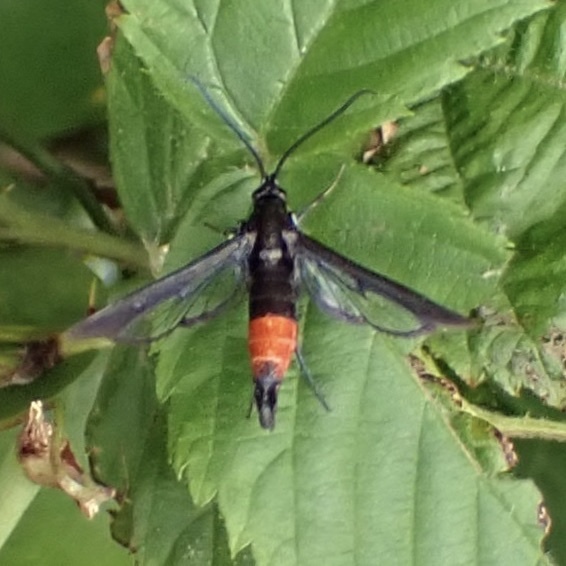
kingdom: Animalia
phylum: Arthropoda
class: Insecta
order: Lepidoptera
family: Sesiidae
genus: Synanthedon
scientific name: Synanthedon rubrofascia
